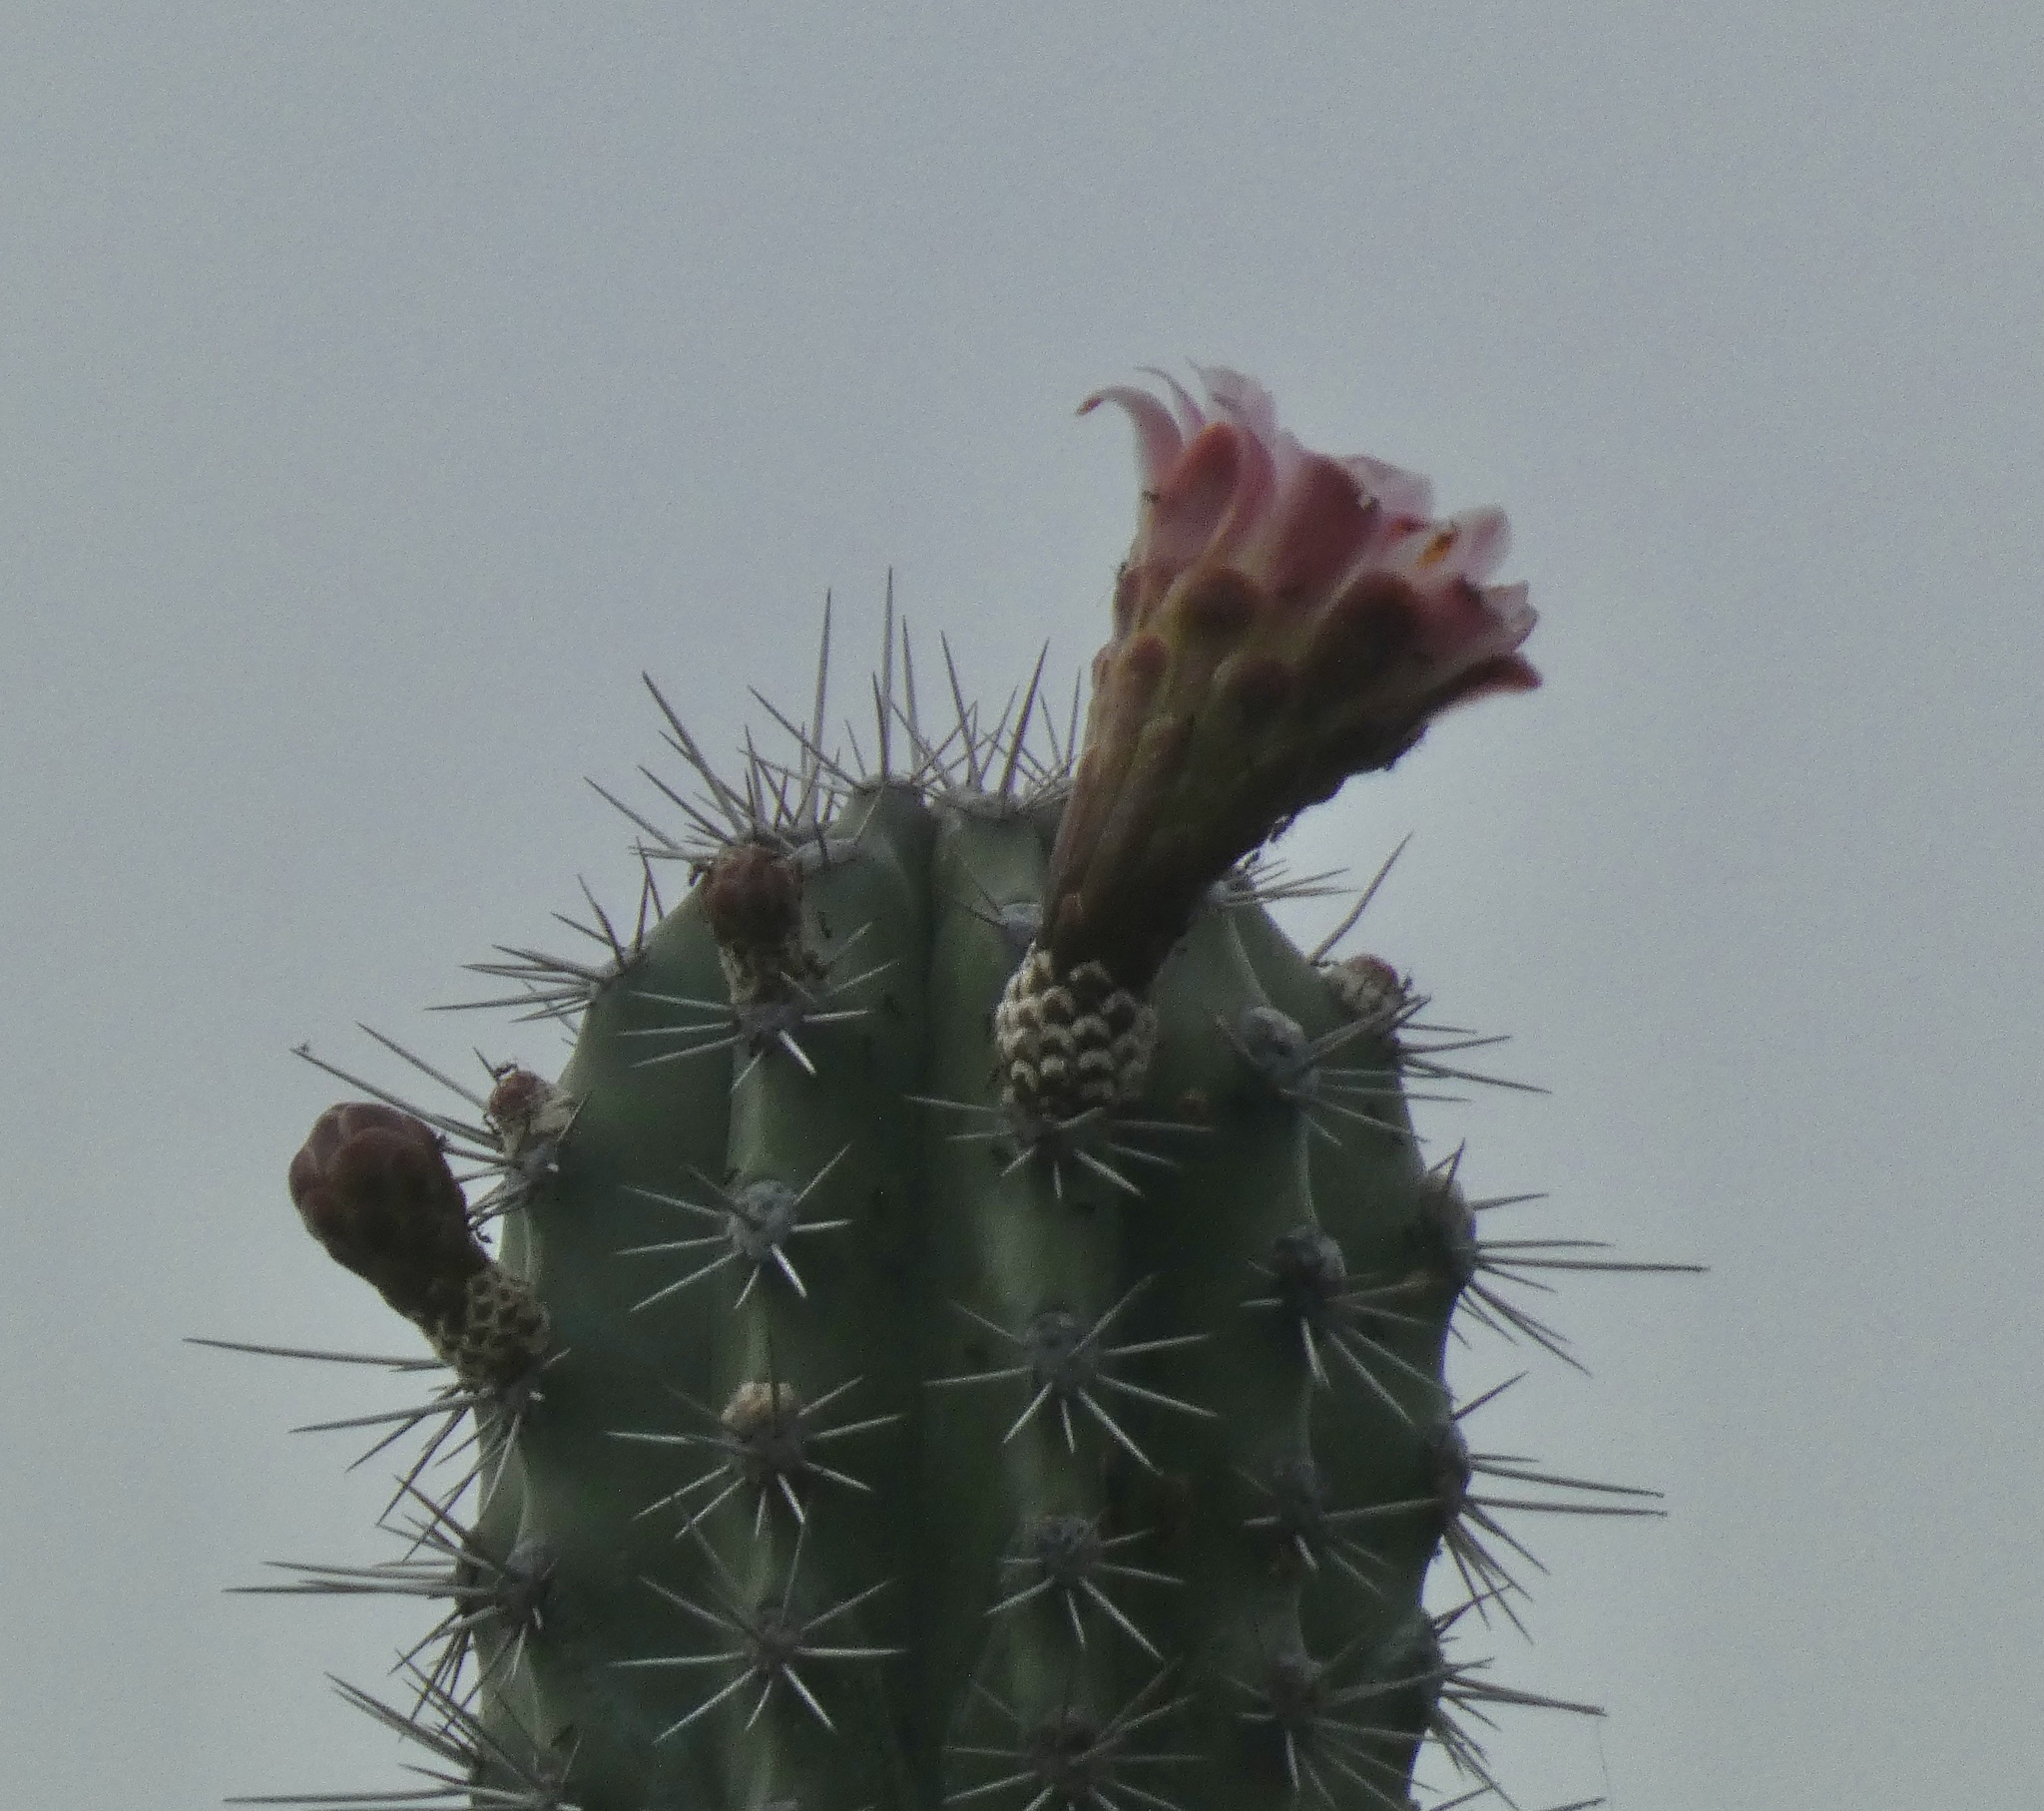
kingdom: Plantae
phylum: Tracheophyta
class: Magnoliopsida
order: Caryophyllales
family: Cactaceae
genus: Stenocereus
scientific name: Stenocereus griseus
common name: Tall candelabra cactus
